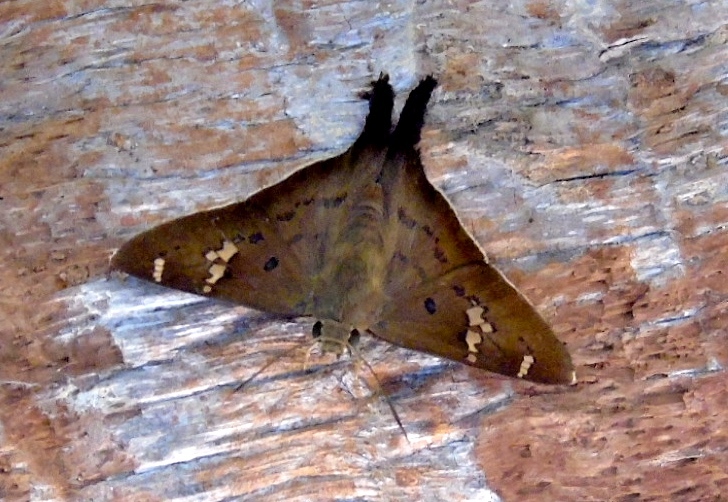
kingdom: Animalia
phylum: Arthropoda
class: Insecta
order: Lepidoptera
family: Hesperiidae
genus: Ectomis
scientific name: Ectomis
